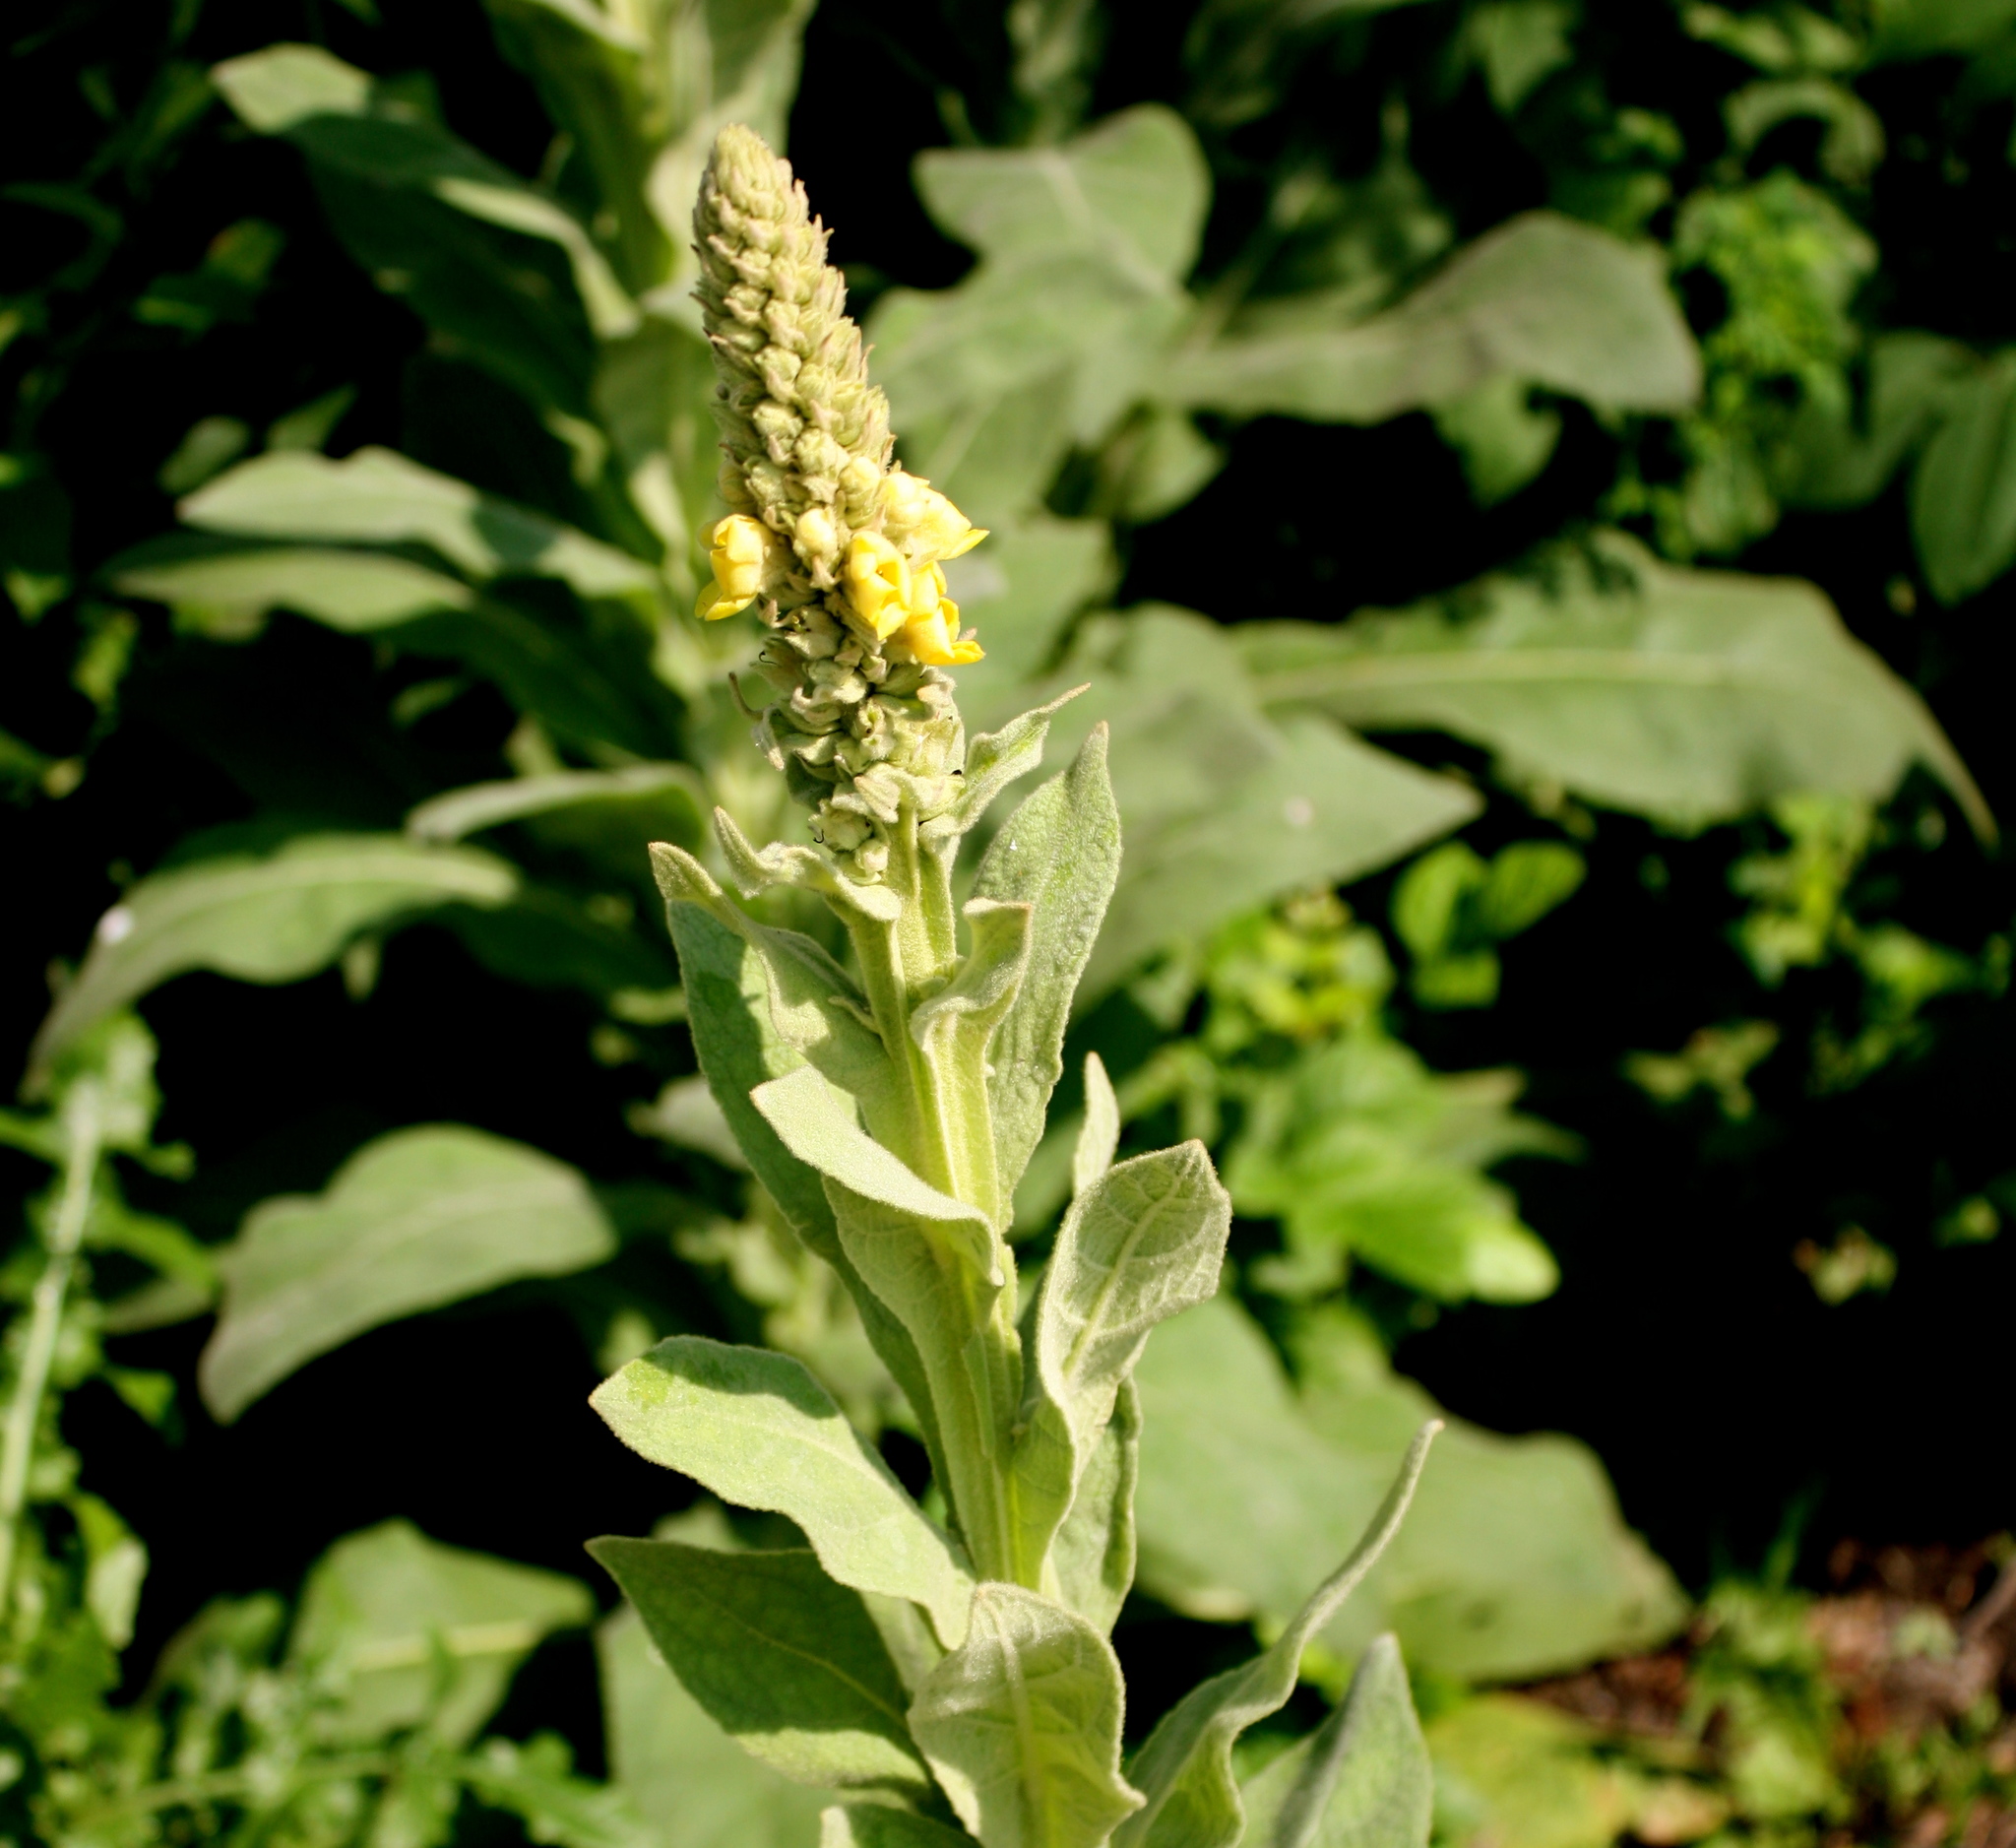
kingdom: Plantae
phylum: Tracheophyta
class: Magnoliopsida
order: Lamiales
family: Scrophulariaceae
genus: Verbascum
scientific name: Verbascum thapsus
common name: Common mullein
